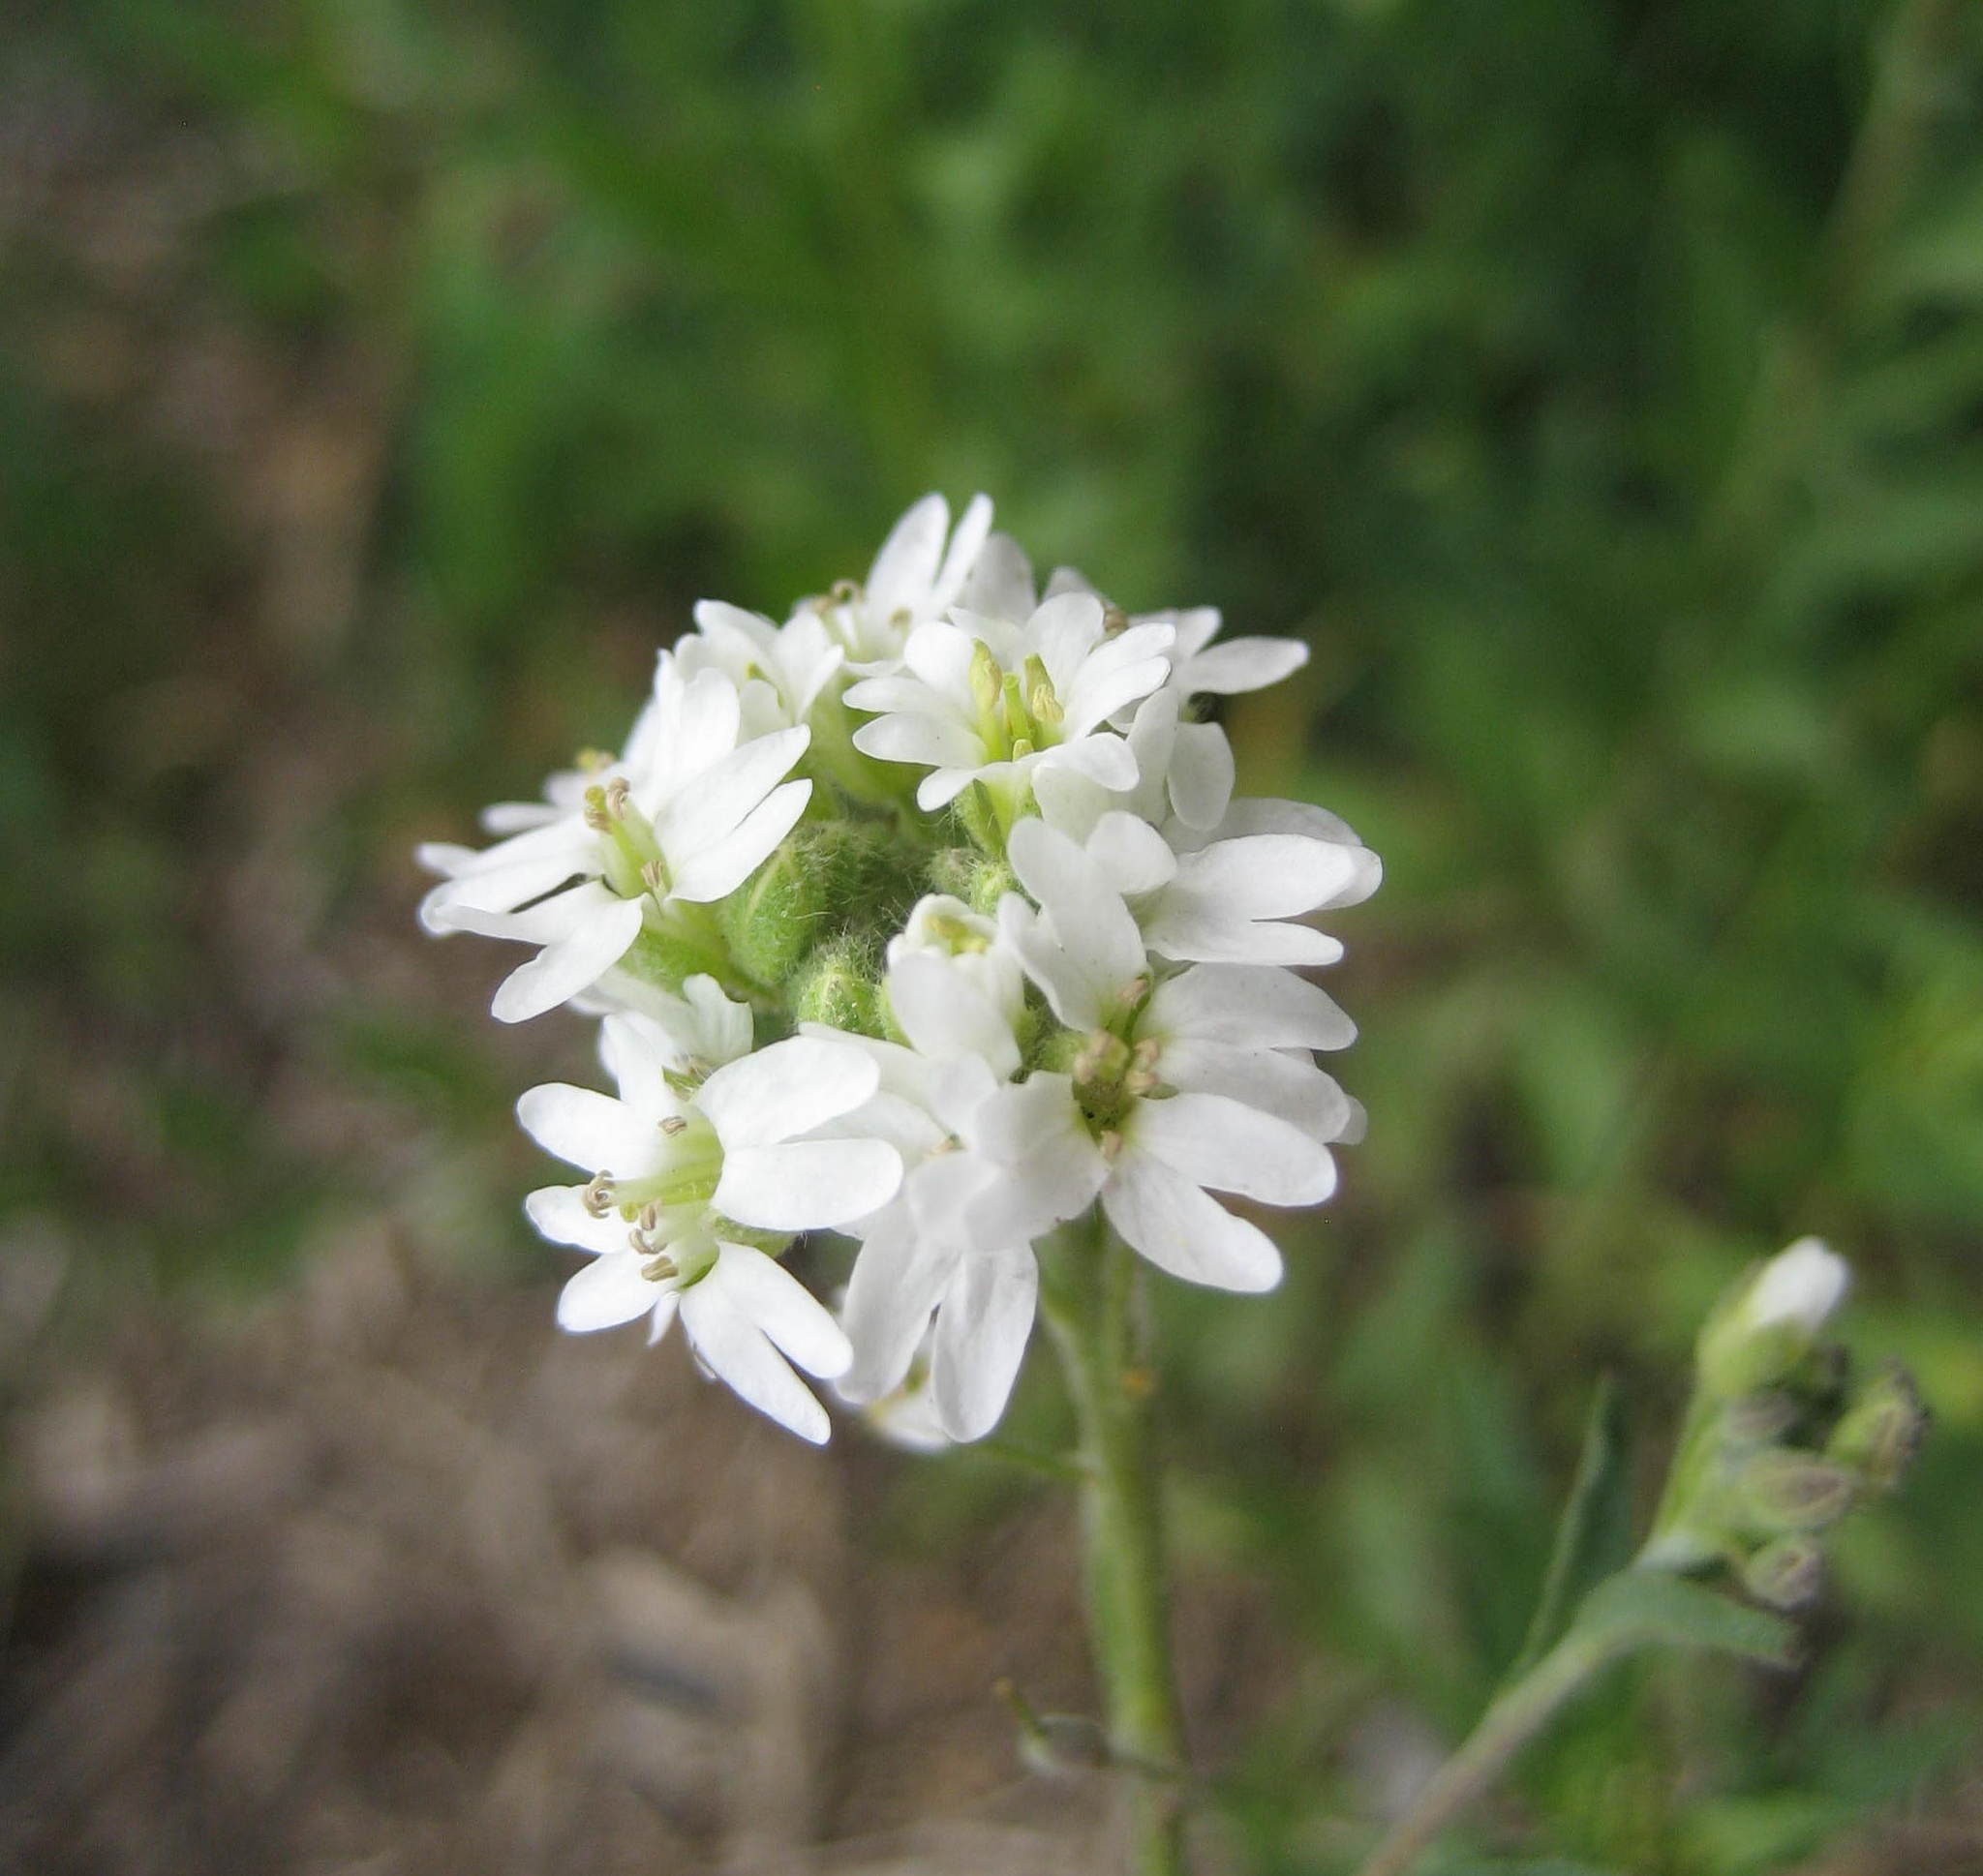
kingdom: Plantae
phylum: Tracheophyta
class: Magnoliopsida
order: Brassicales
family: Brassicaceae
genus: Berteroa
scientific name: Berteroa incana
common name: Hoary alison
